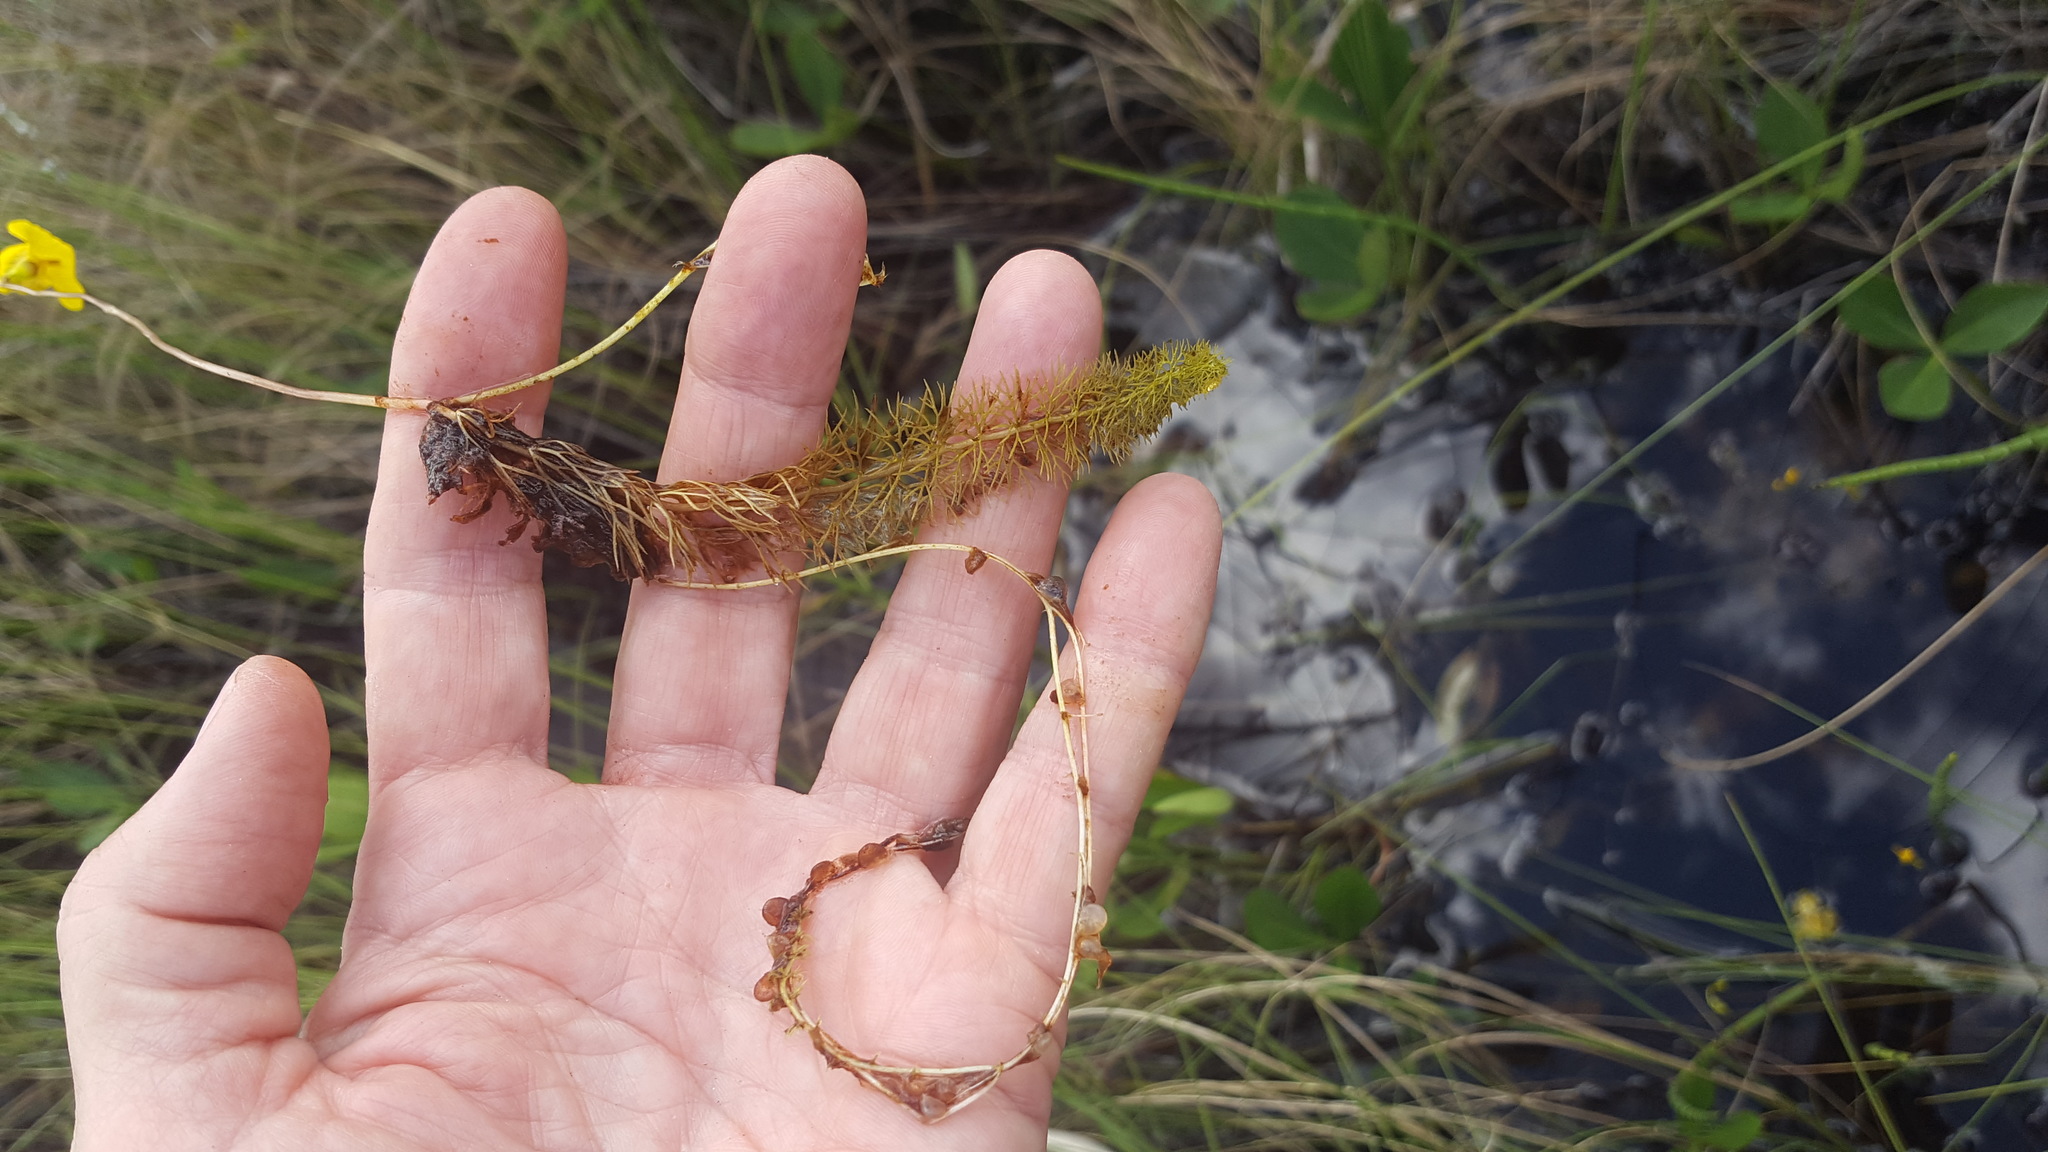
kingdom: Plantae
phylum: Tracheophyta
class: Magnoliopsida
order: Lamiales
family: Lentibulariaceae
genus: Utricularia
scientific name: Utricularia intermedia
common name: Intermediate bladderwort
